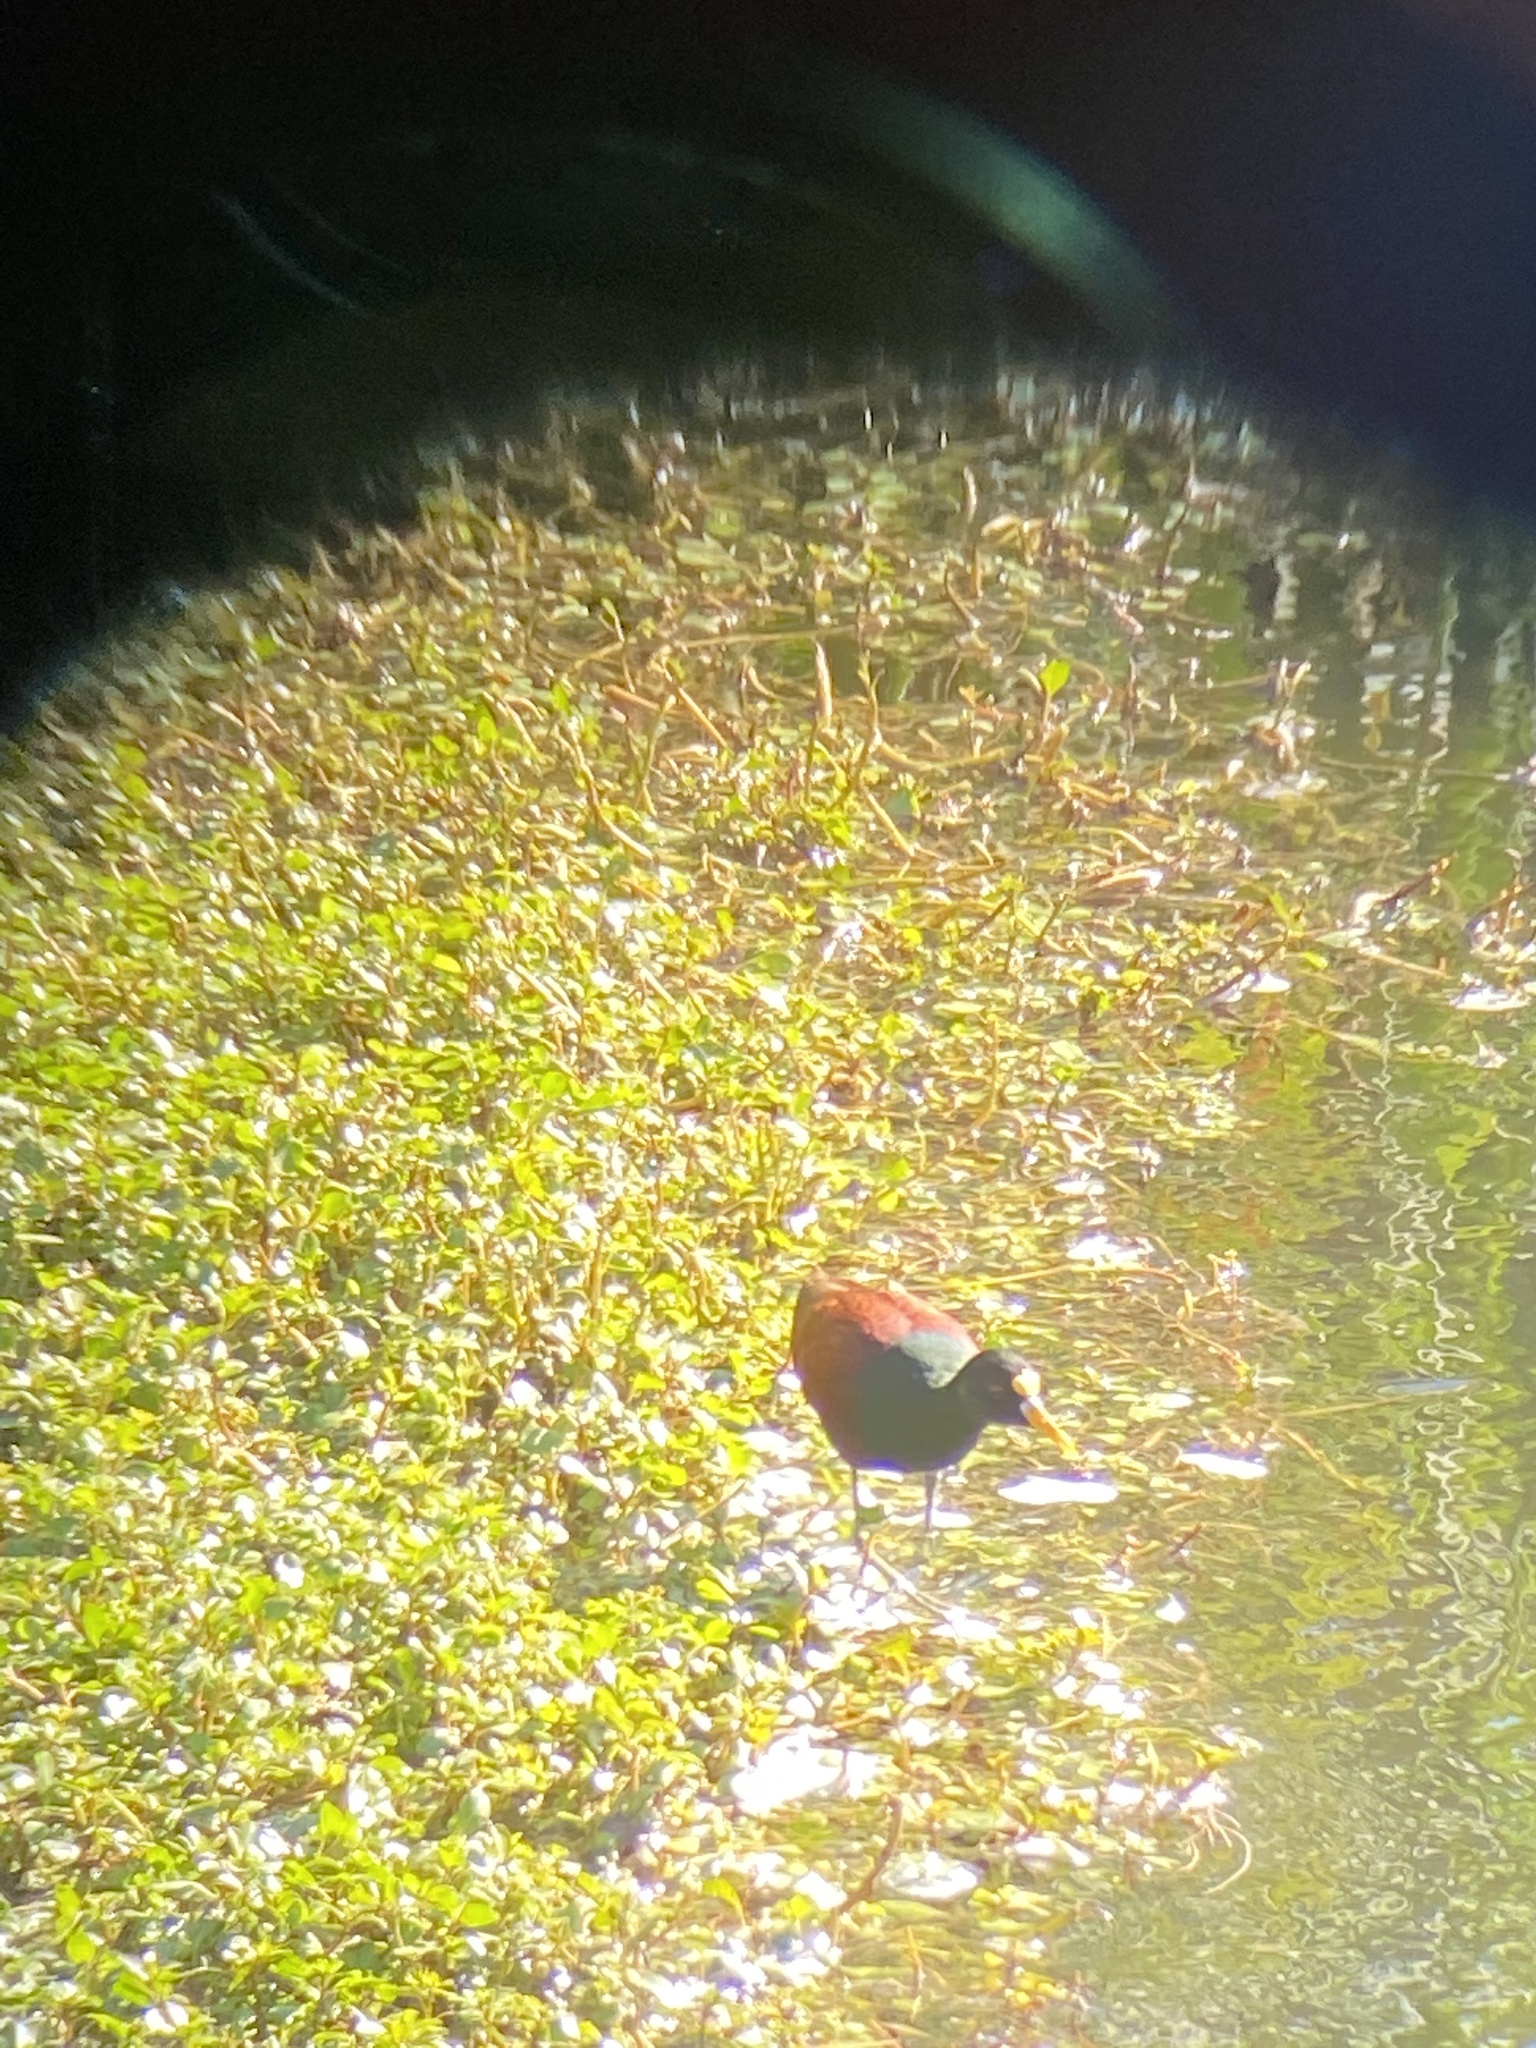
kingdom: Animalia
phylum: Chordata
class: Aves
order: Charadriiformes
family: Jacanidae
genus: Jacana
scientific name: Jacana spinosa
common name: Northern jacana
